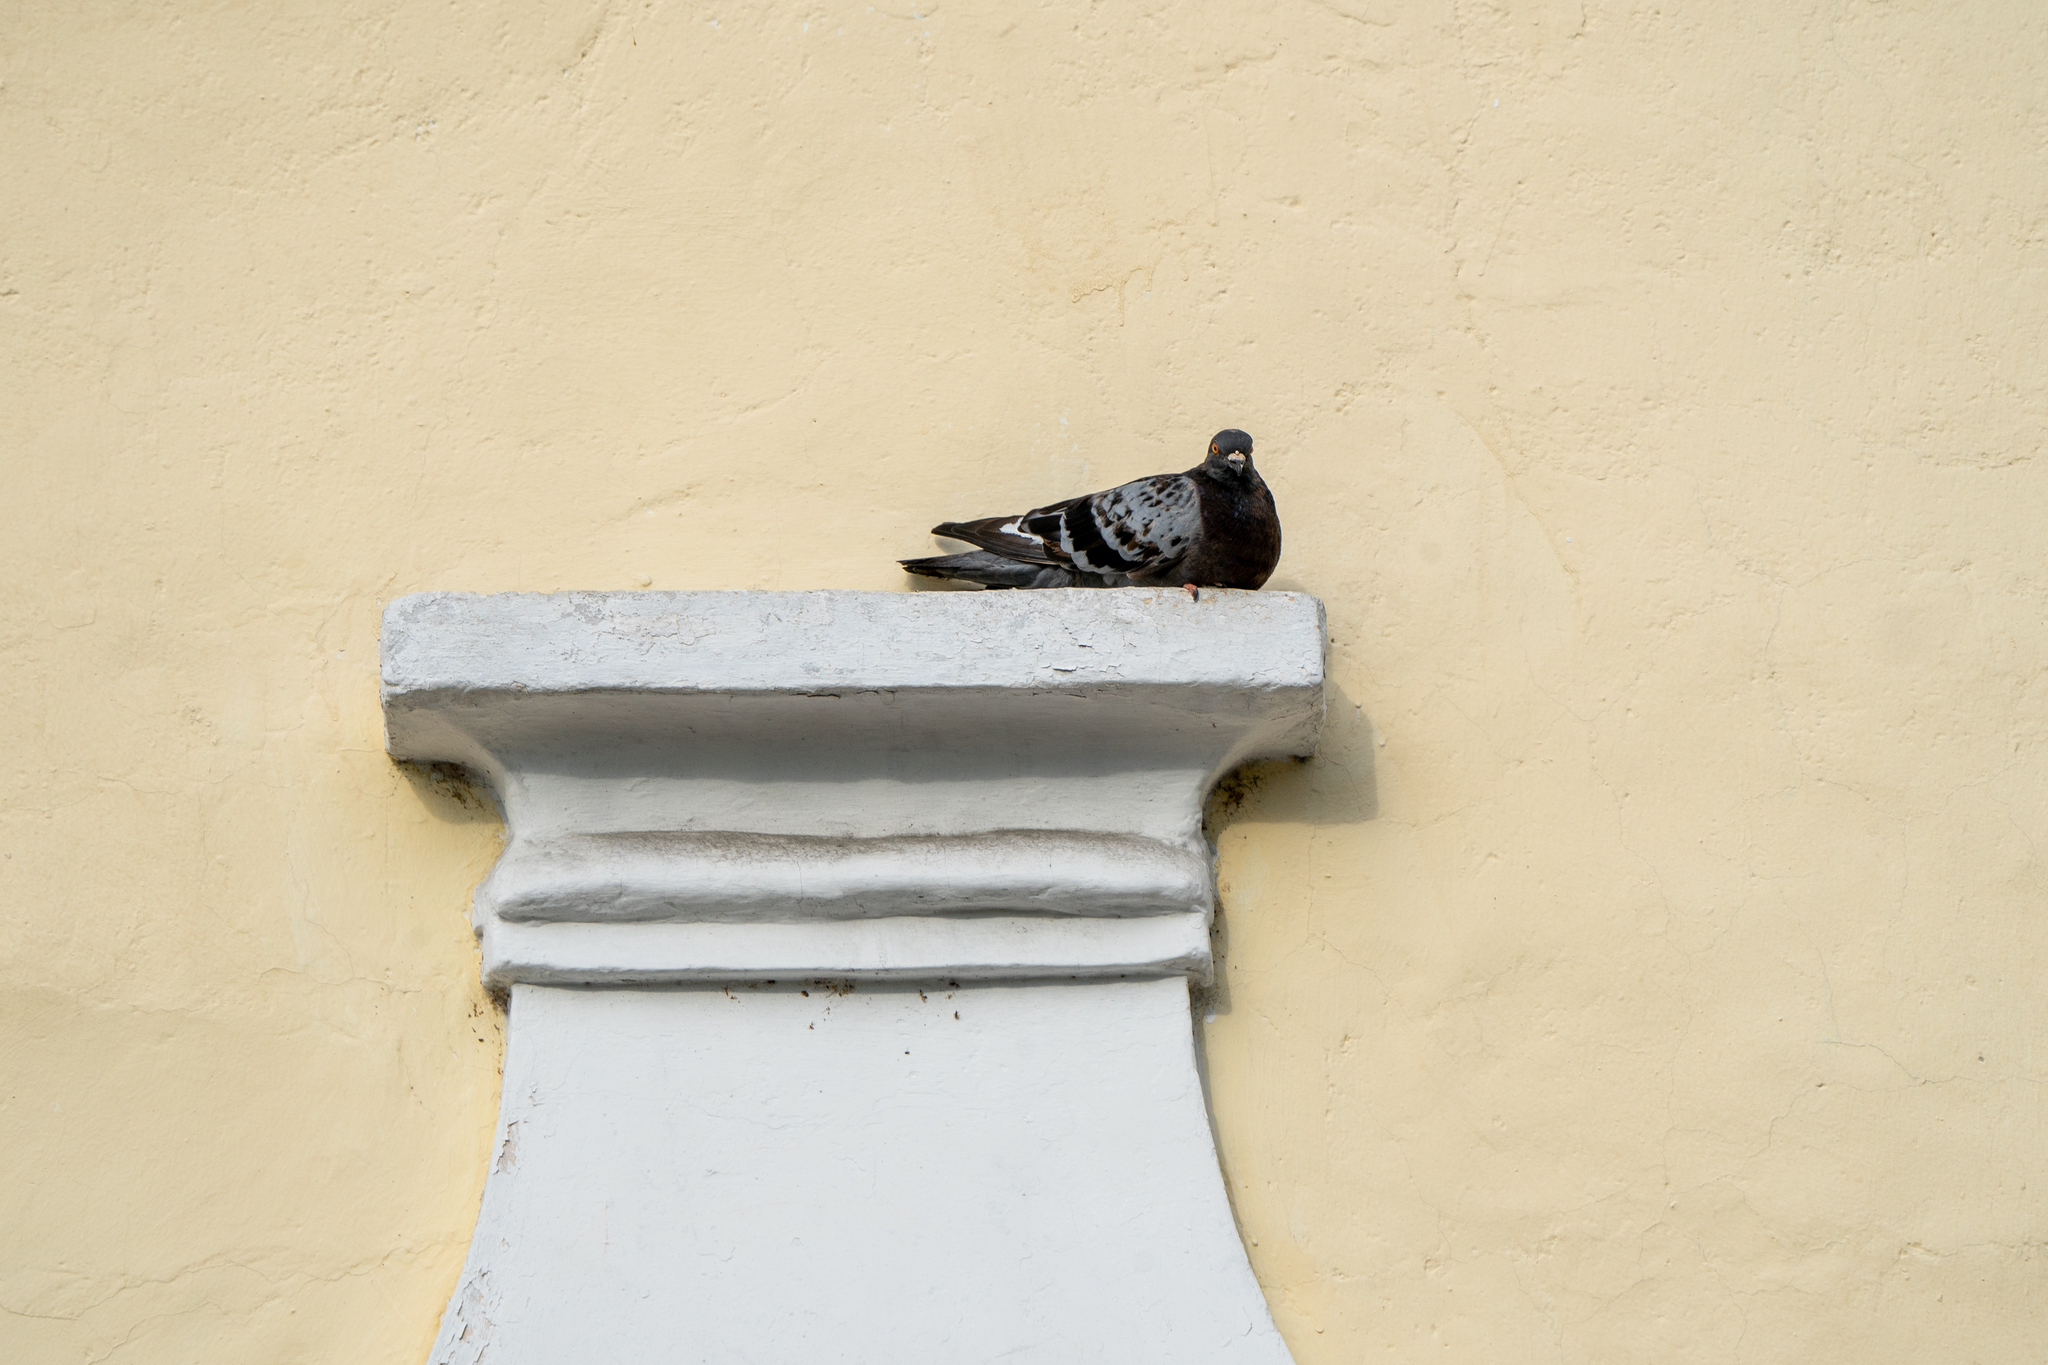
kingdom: Animalia
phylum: Chordata
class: Aves
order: Columbiformes
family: Columbidae
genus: Columba
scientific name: Columba livia
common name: Rock pigeon
